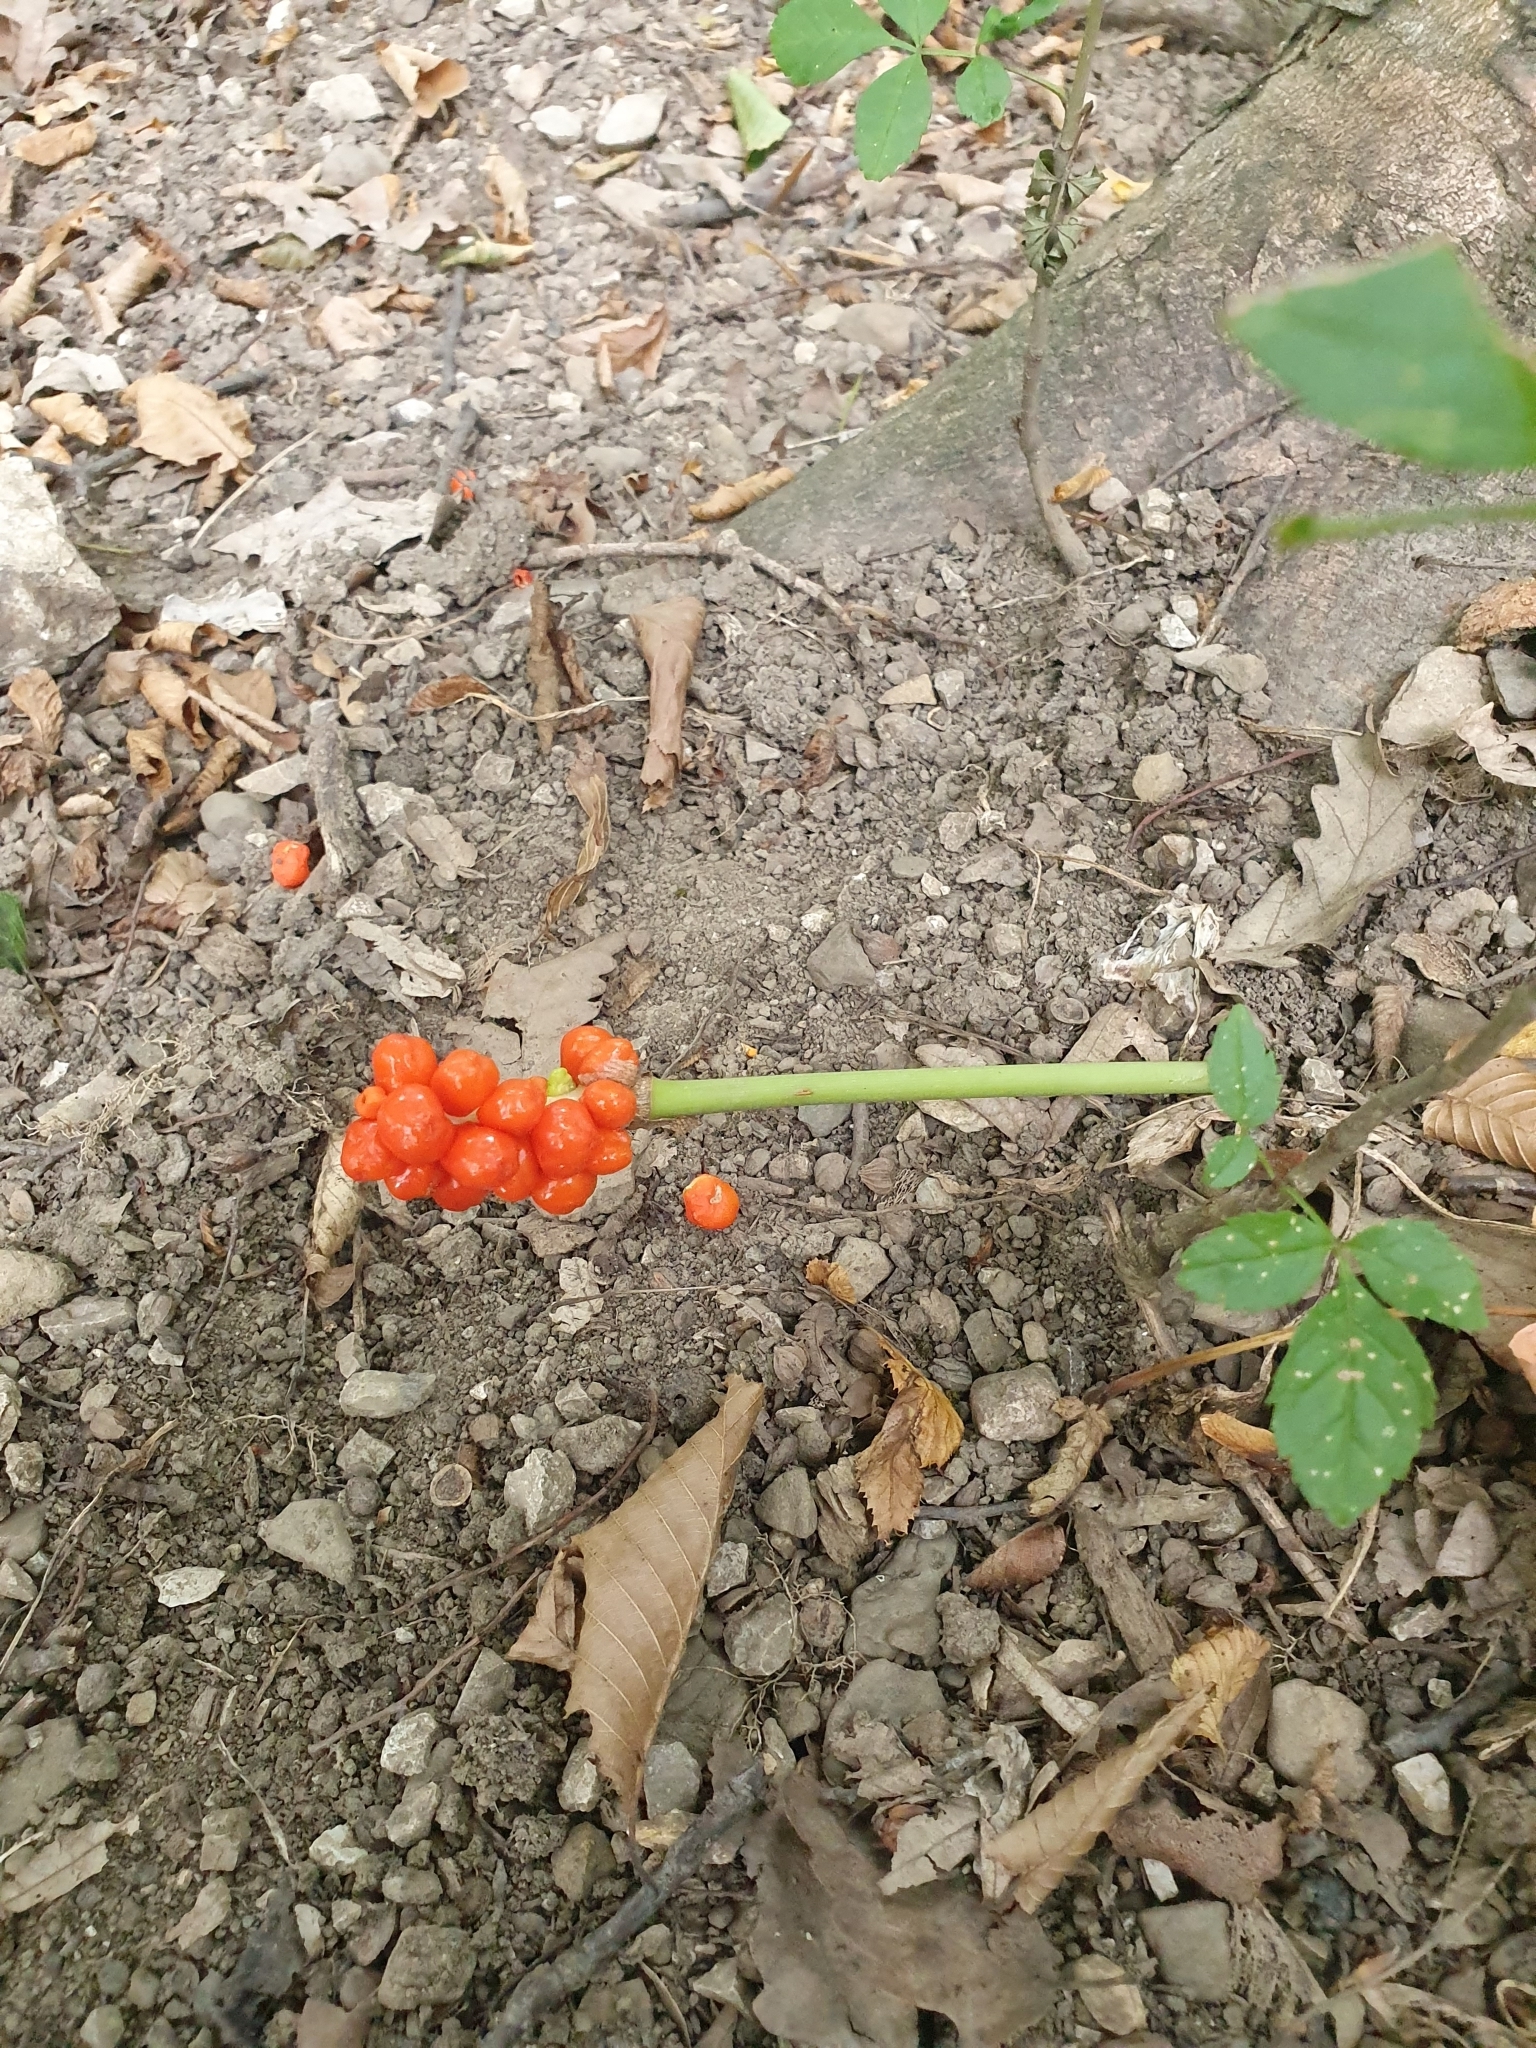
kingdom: Plantae
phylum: Tracheophyta
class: Liliopsida
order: Alismatales
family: Araceae
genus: Arum
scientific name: Arum cylindraceum
